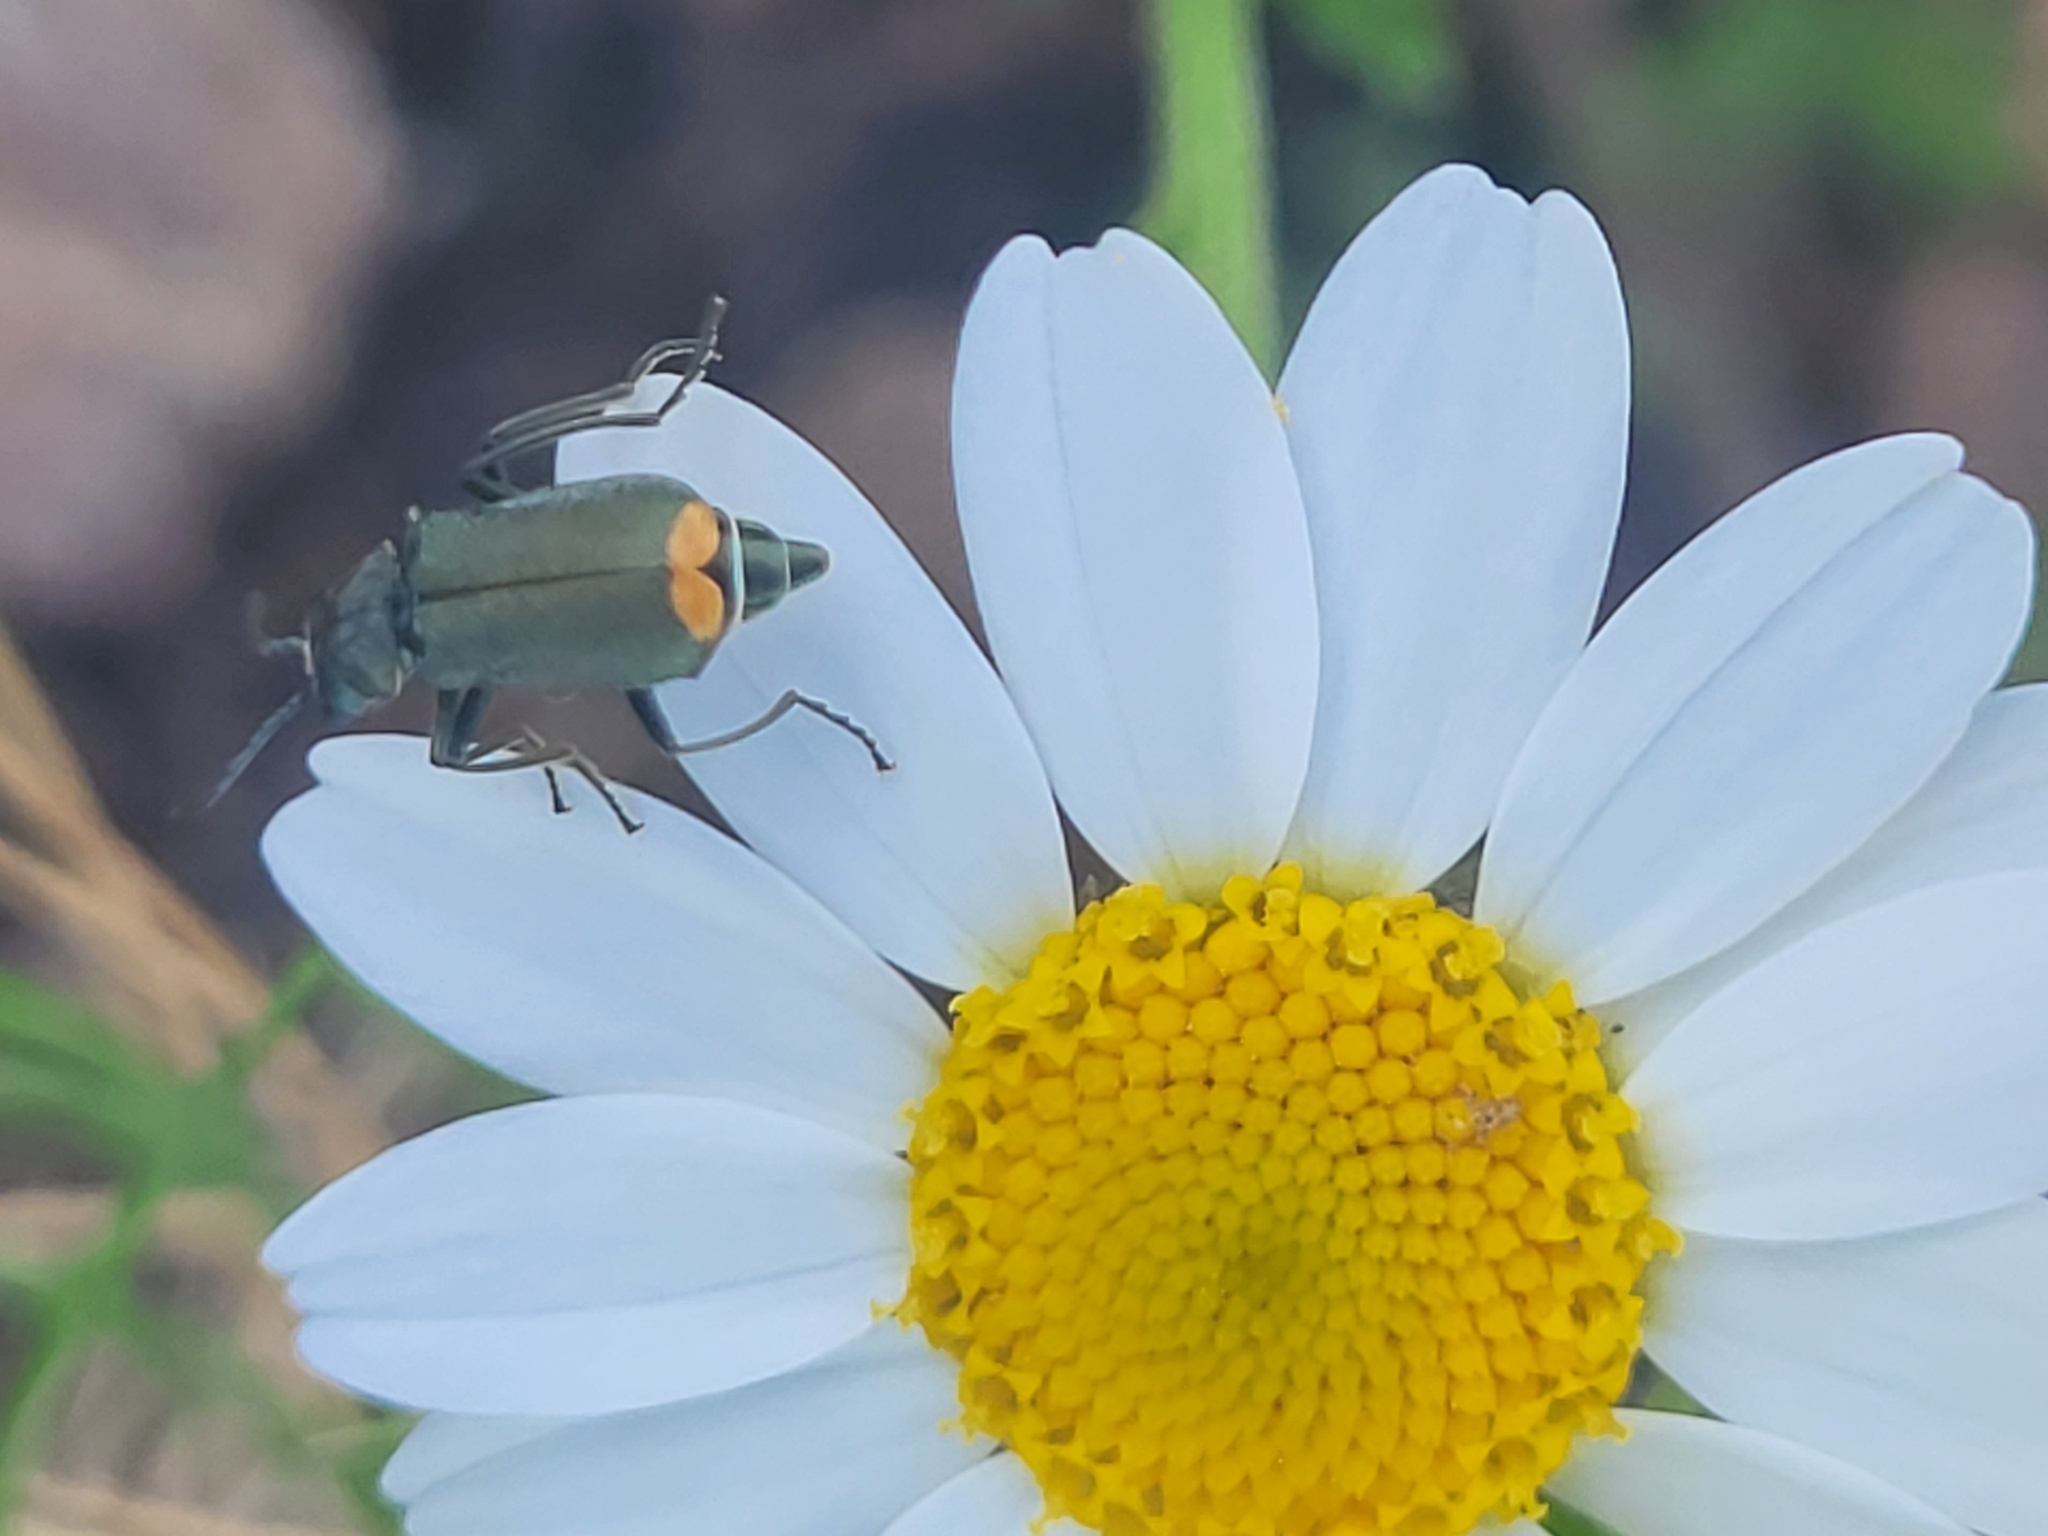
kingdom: Animalia
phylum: Arthropoda
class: Insecta
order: Coleoptera
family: Malachiidae
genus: Ceratistes
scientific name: Ceratistes dilaticornis
